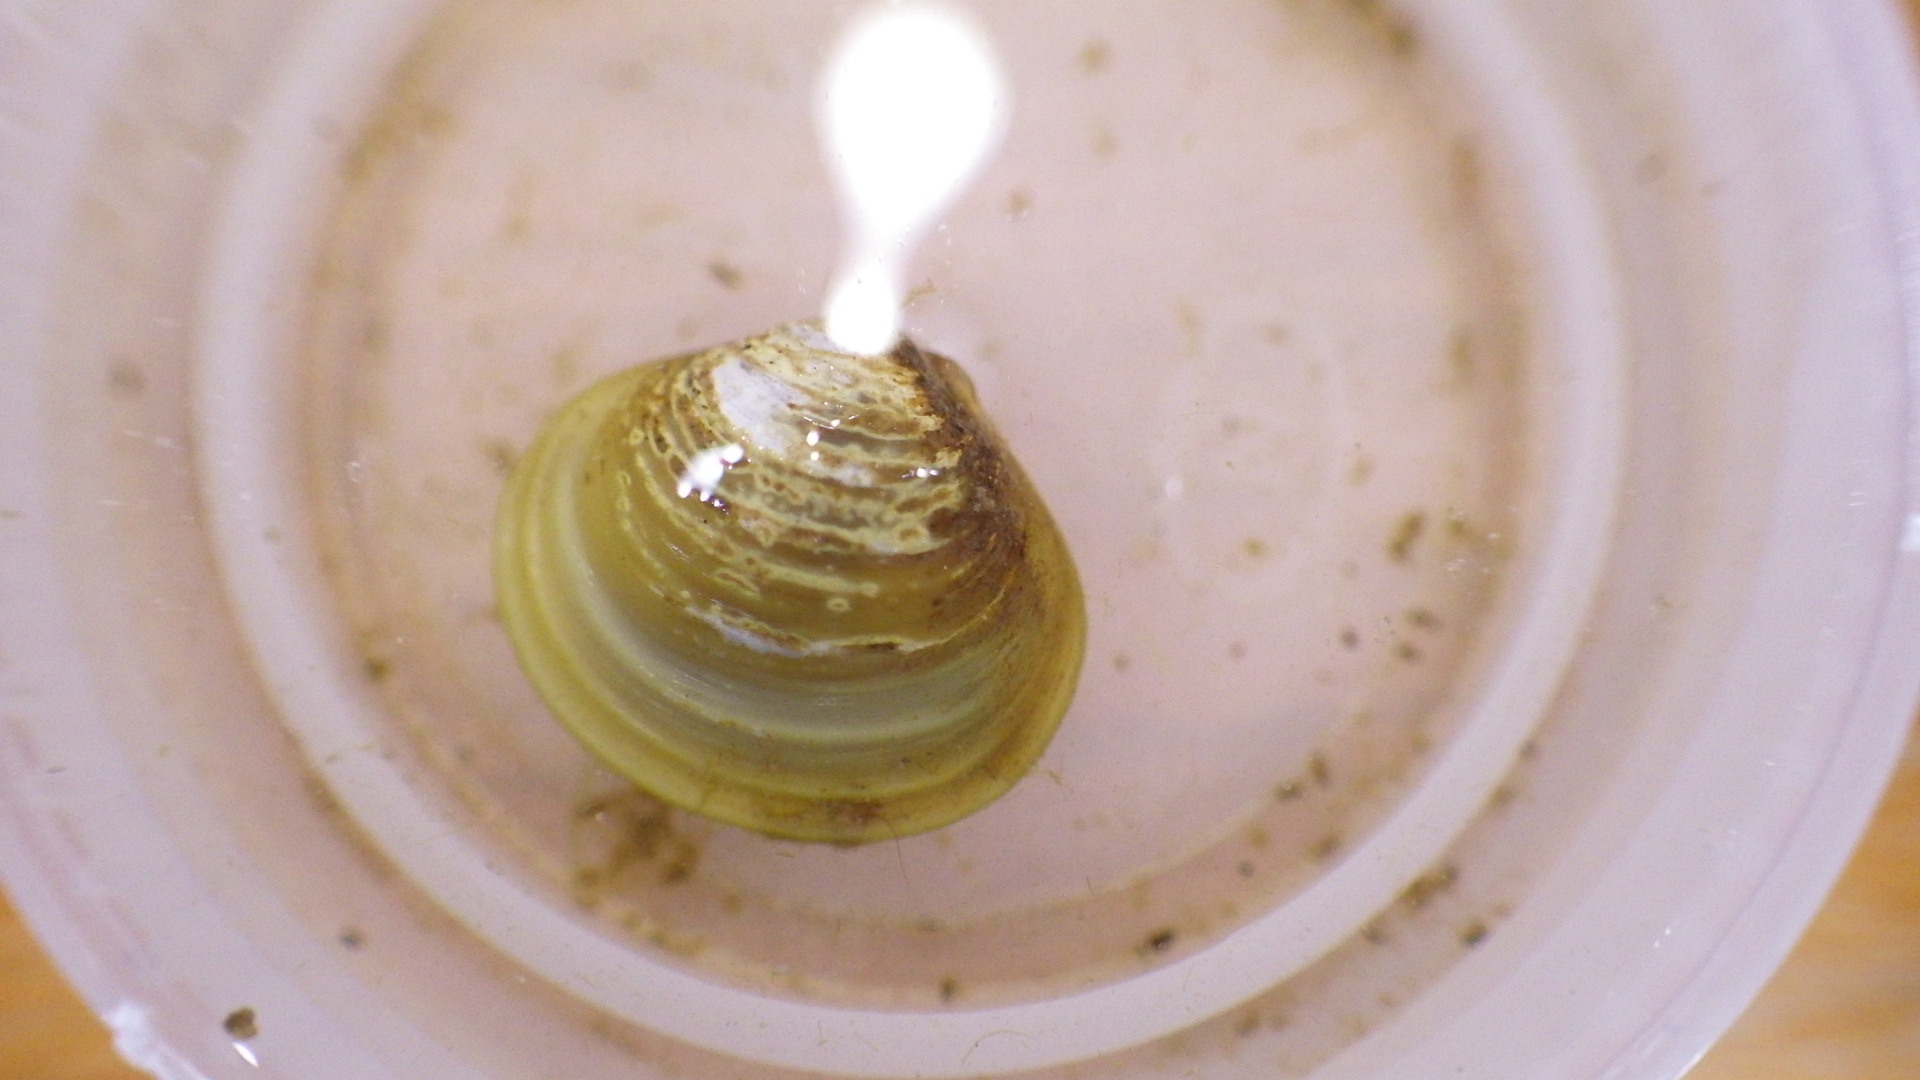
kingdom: Animalia
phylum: Mollusca
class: Bivalvia
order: Venerida
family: Cyrenidae
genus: Corbicula
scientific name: Corbicula fluminea
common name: Asian clam
